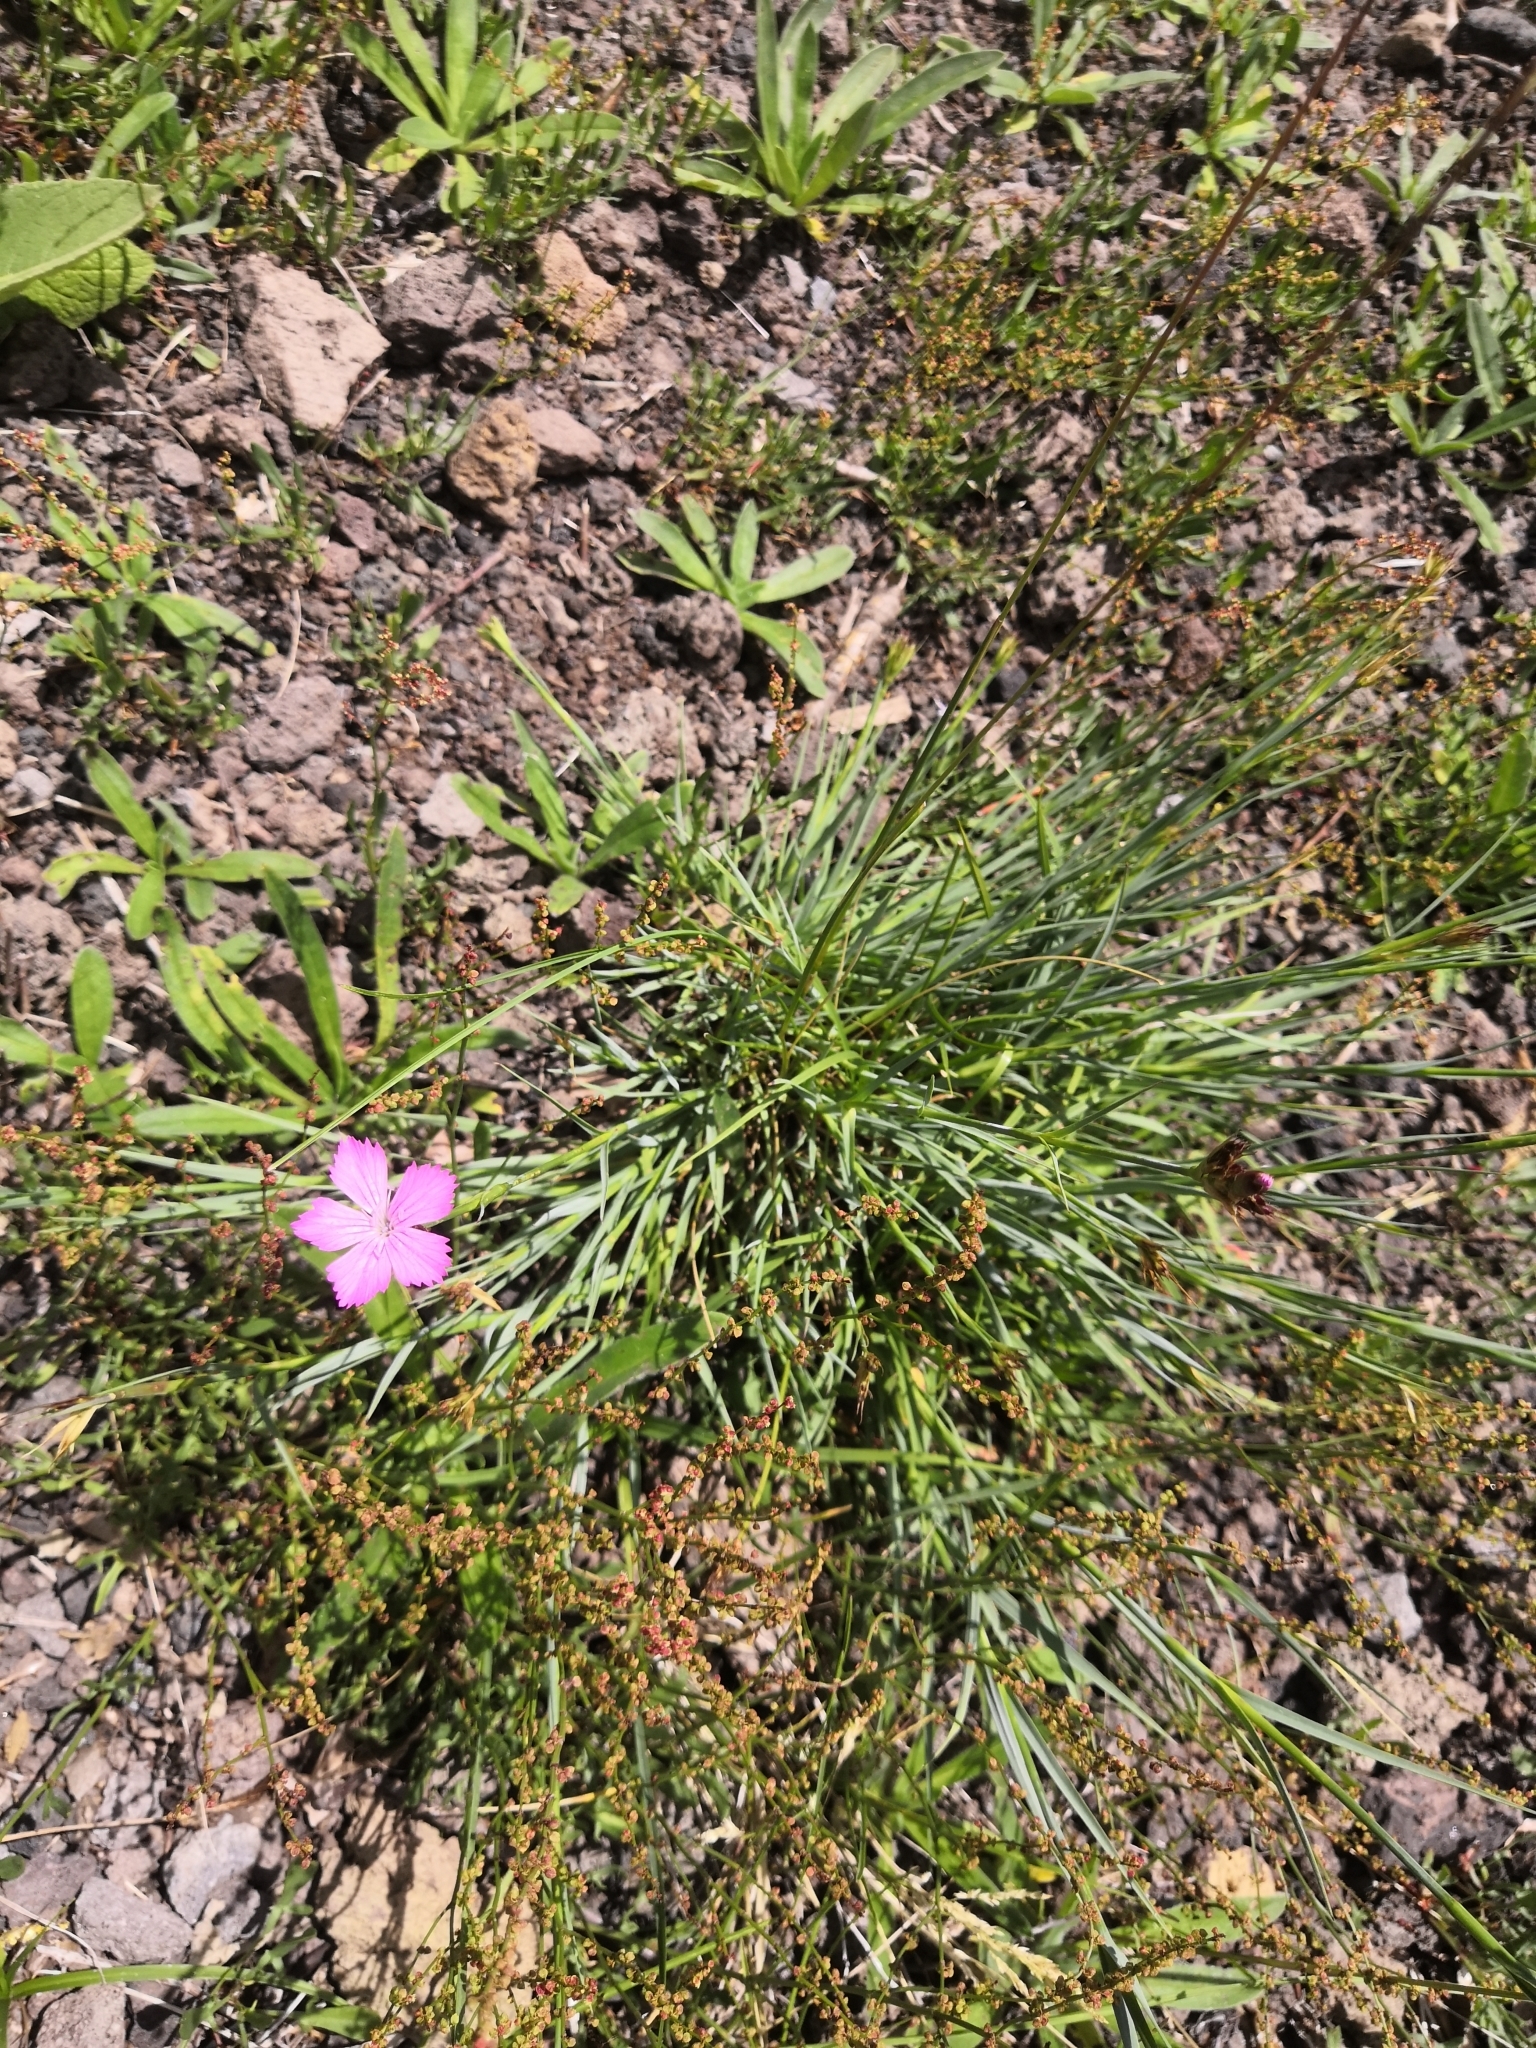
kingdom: Plantae
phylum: Tracheophyta
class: Magnoliopsida
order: Caryophyllales
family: Caryophyllaceae
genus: Dianthus
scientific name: Dianthus carthusianorum
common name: Carthusian pink
